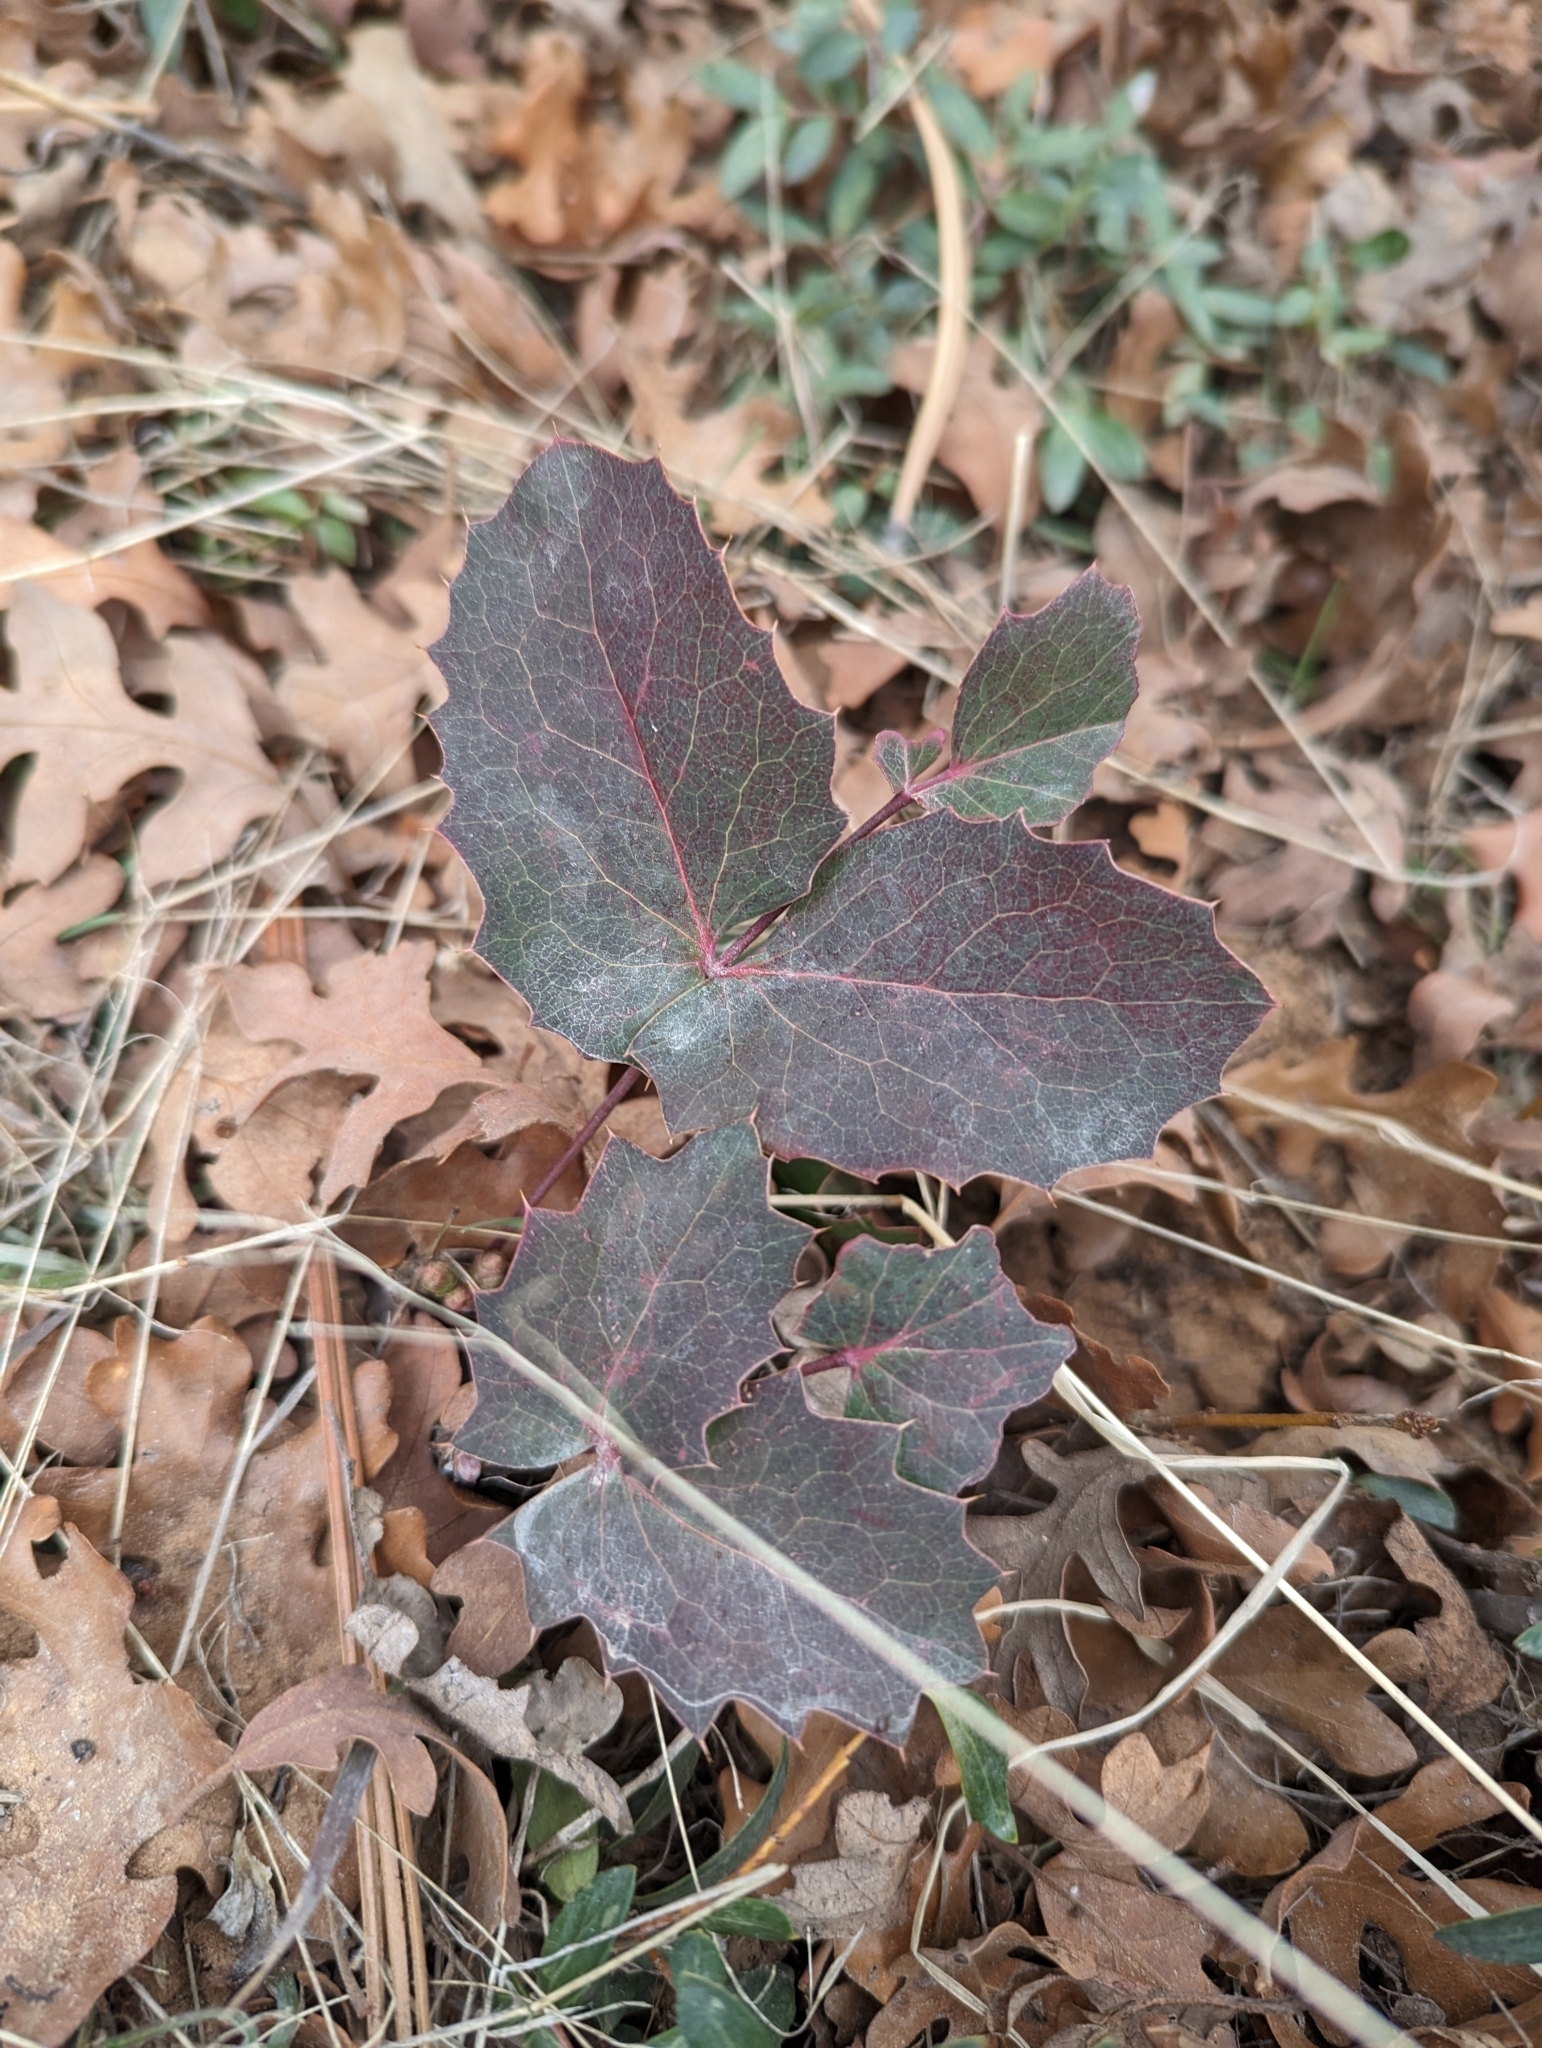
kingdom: Plantae
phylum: Tracheophyta
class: Magnoliopsida
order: Ranunculales
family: Berberidaceae
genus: Mahonia
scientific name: Mahonia repens
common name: Creeping oregon-grape
